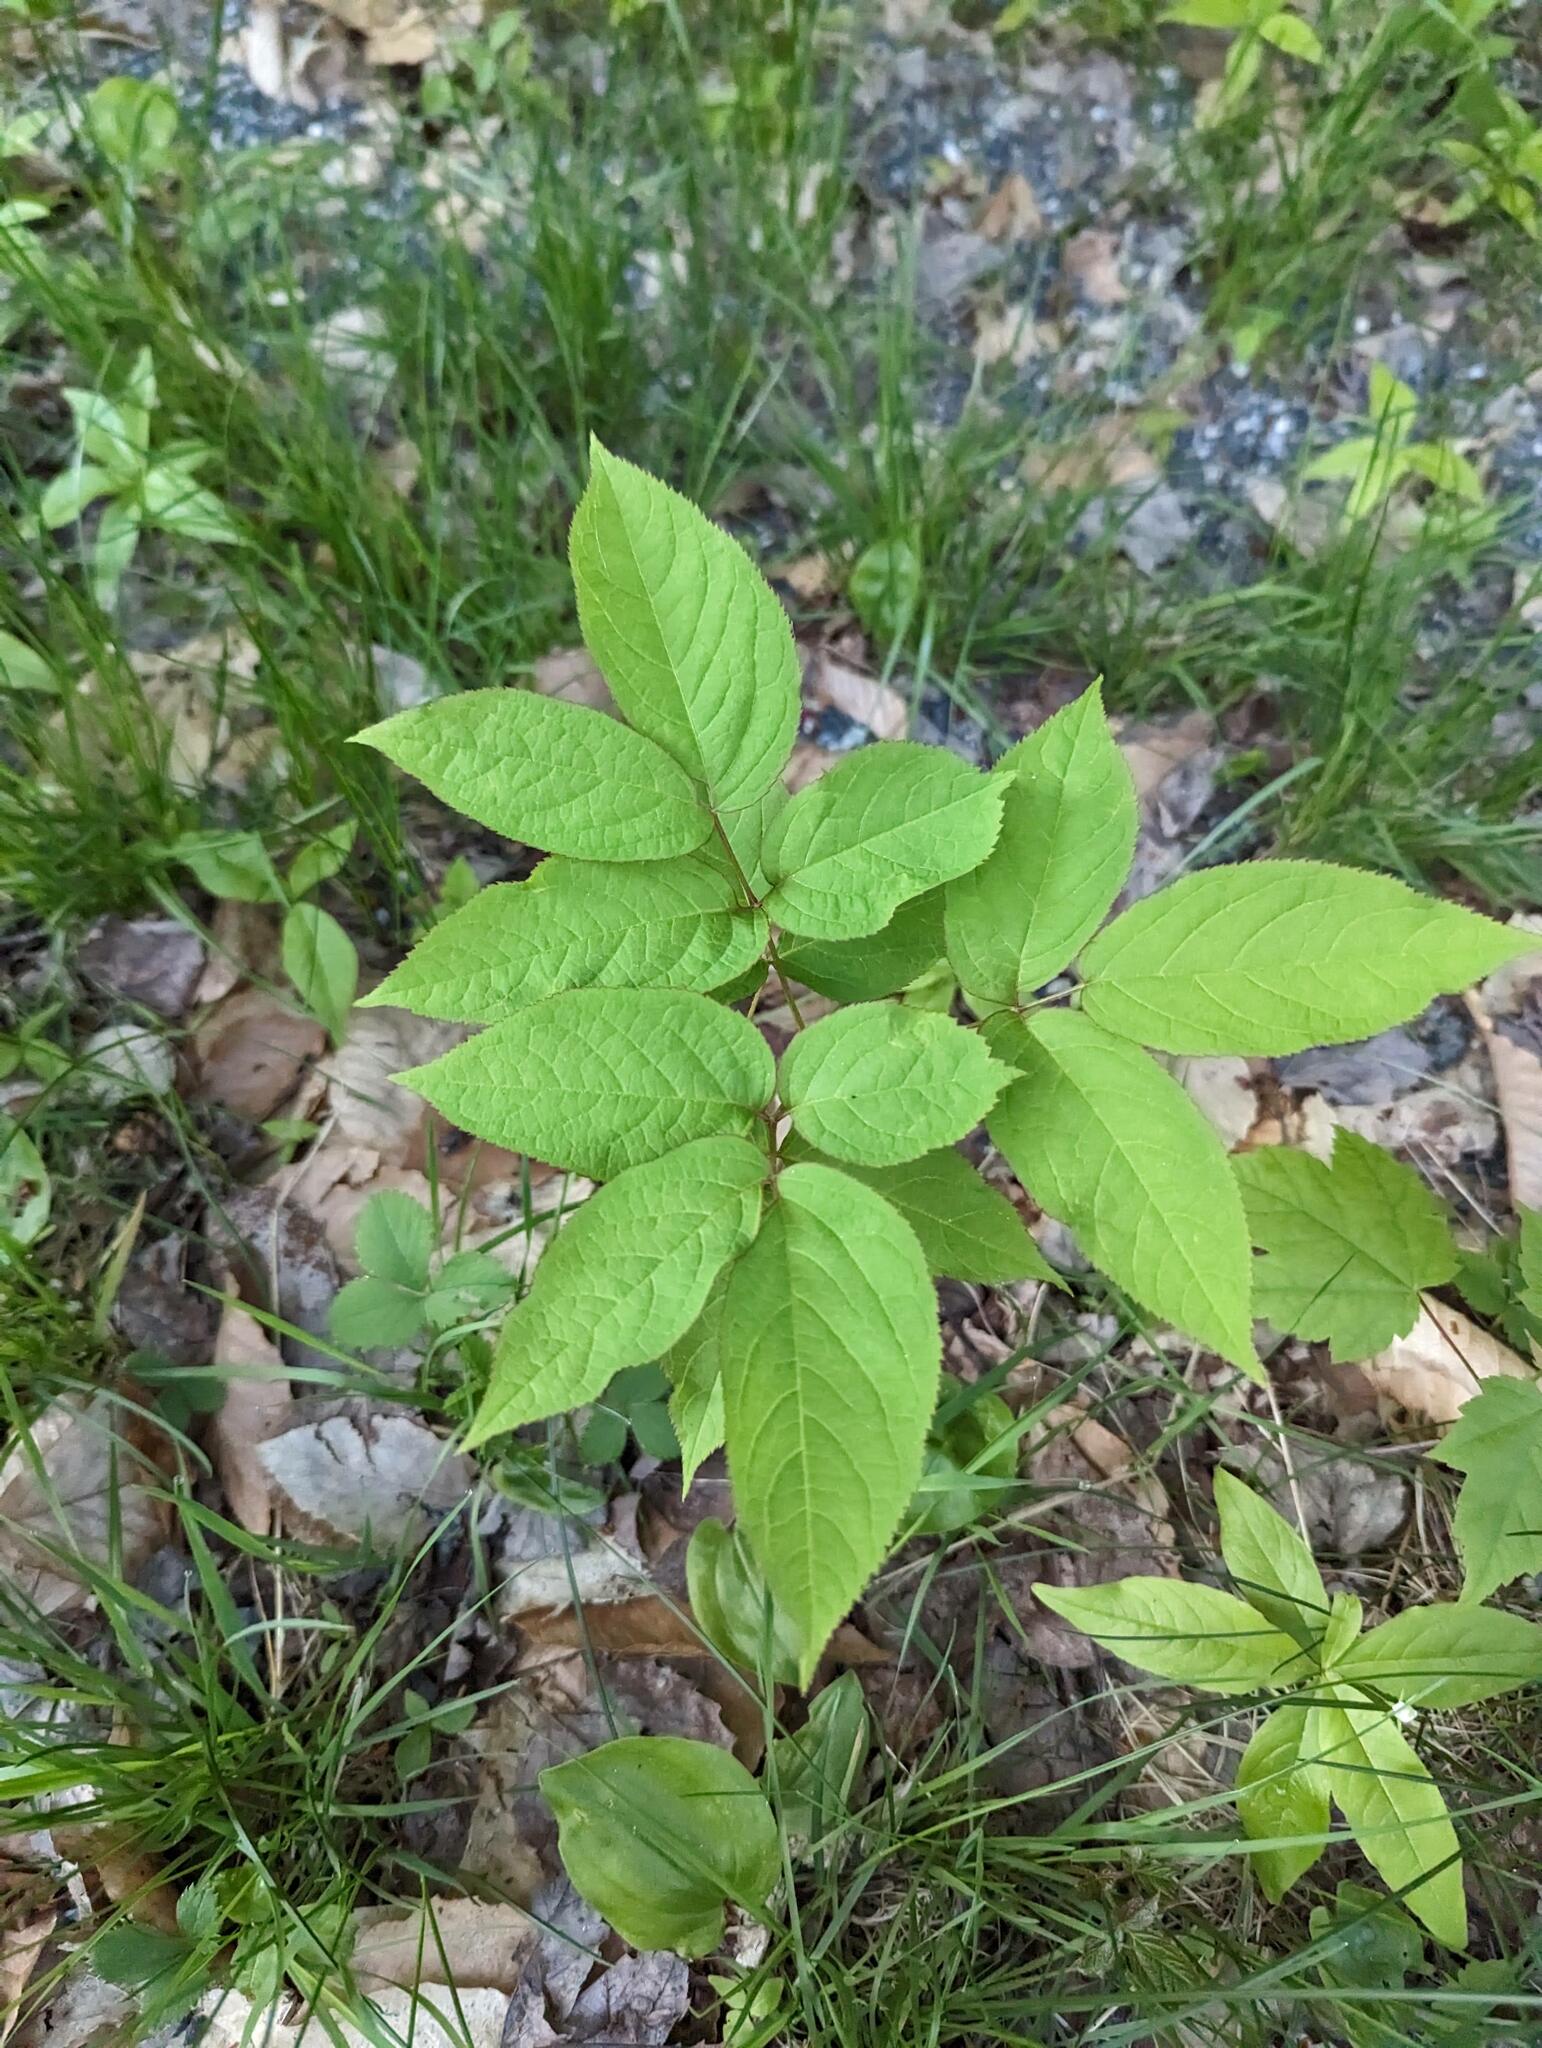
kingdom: Plantae
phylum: Tracheophyta
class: Magnoliopsida
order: Apiales
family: Araliaceae
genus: Aralia
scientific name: Aralia nudicaulis
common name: Wild sarsaparilla
